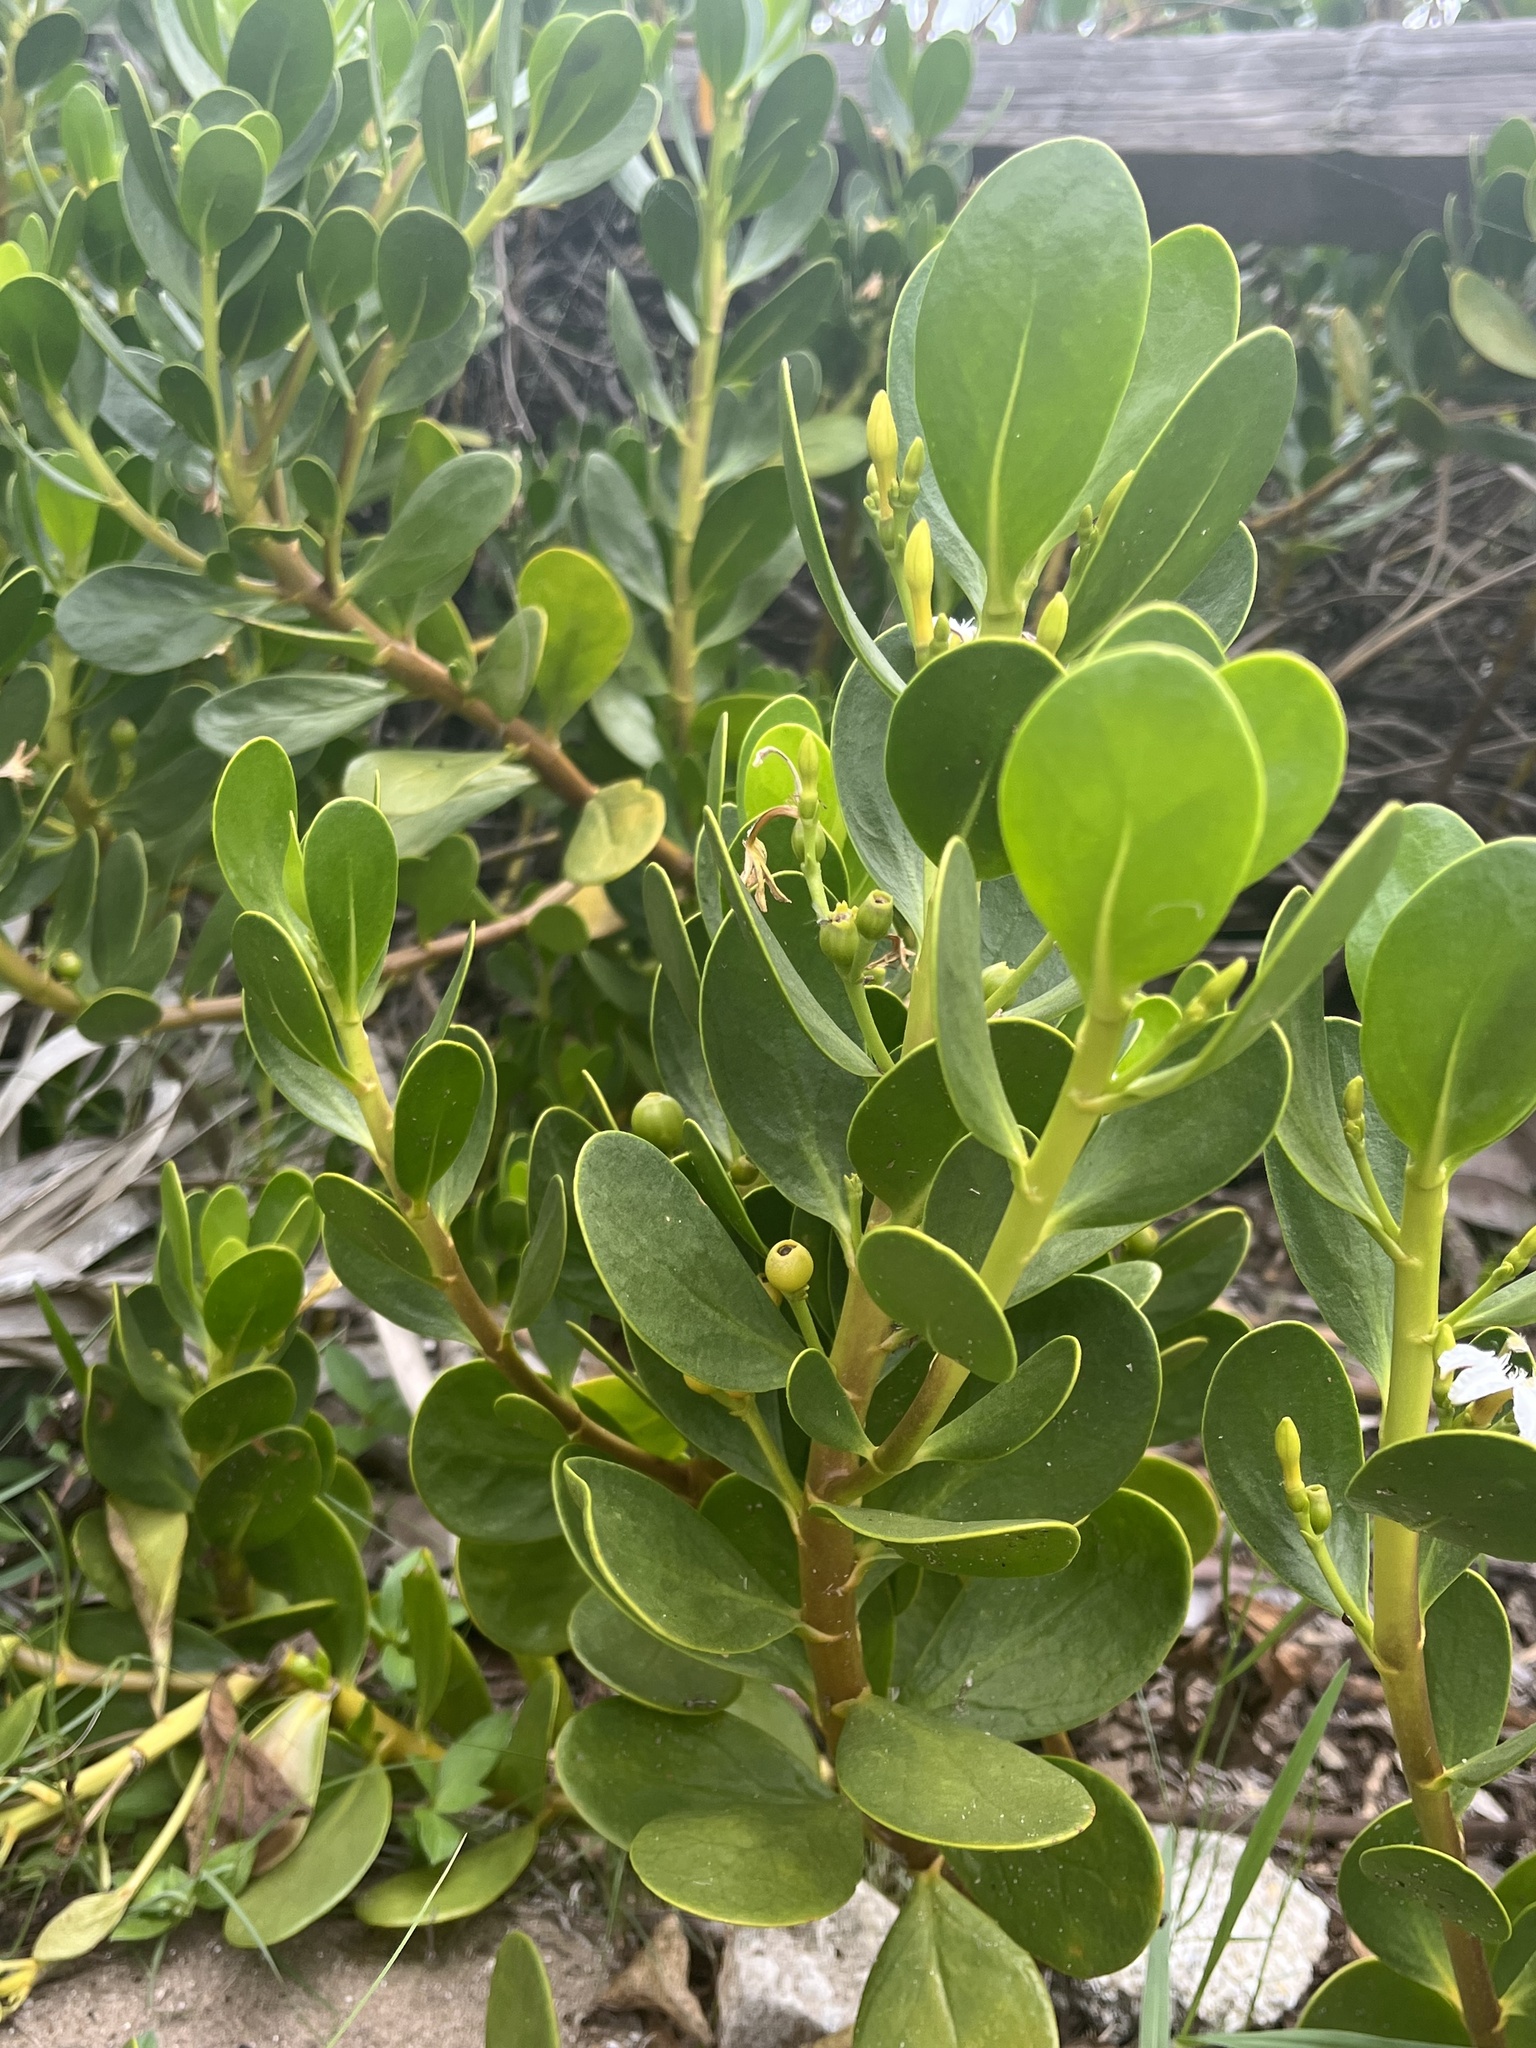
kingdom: Plantae
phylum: Tracheophyta
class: Magnoliopsida
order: Asterales
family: Goodeniaceae
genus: Scaevola
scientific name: Scaevola plumieri
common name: Gull feed
